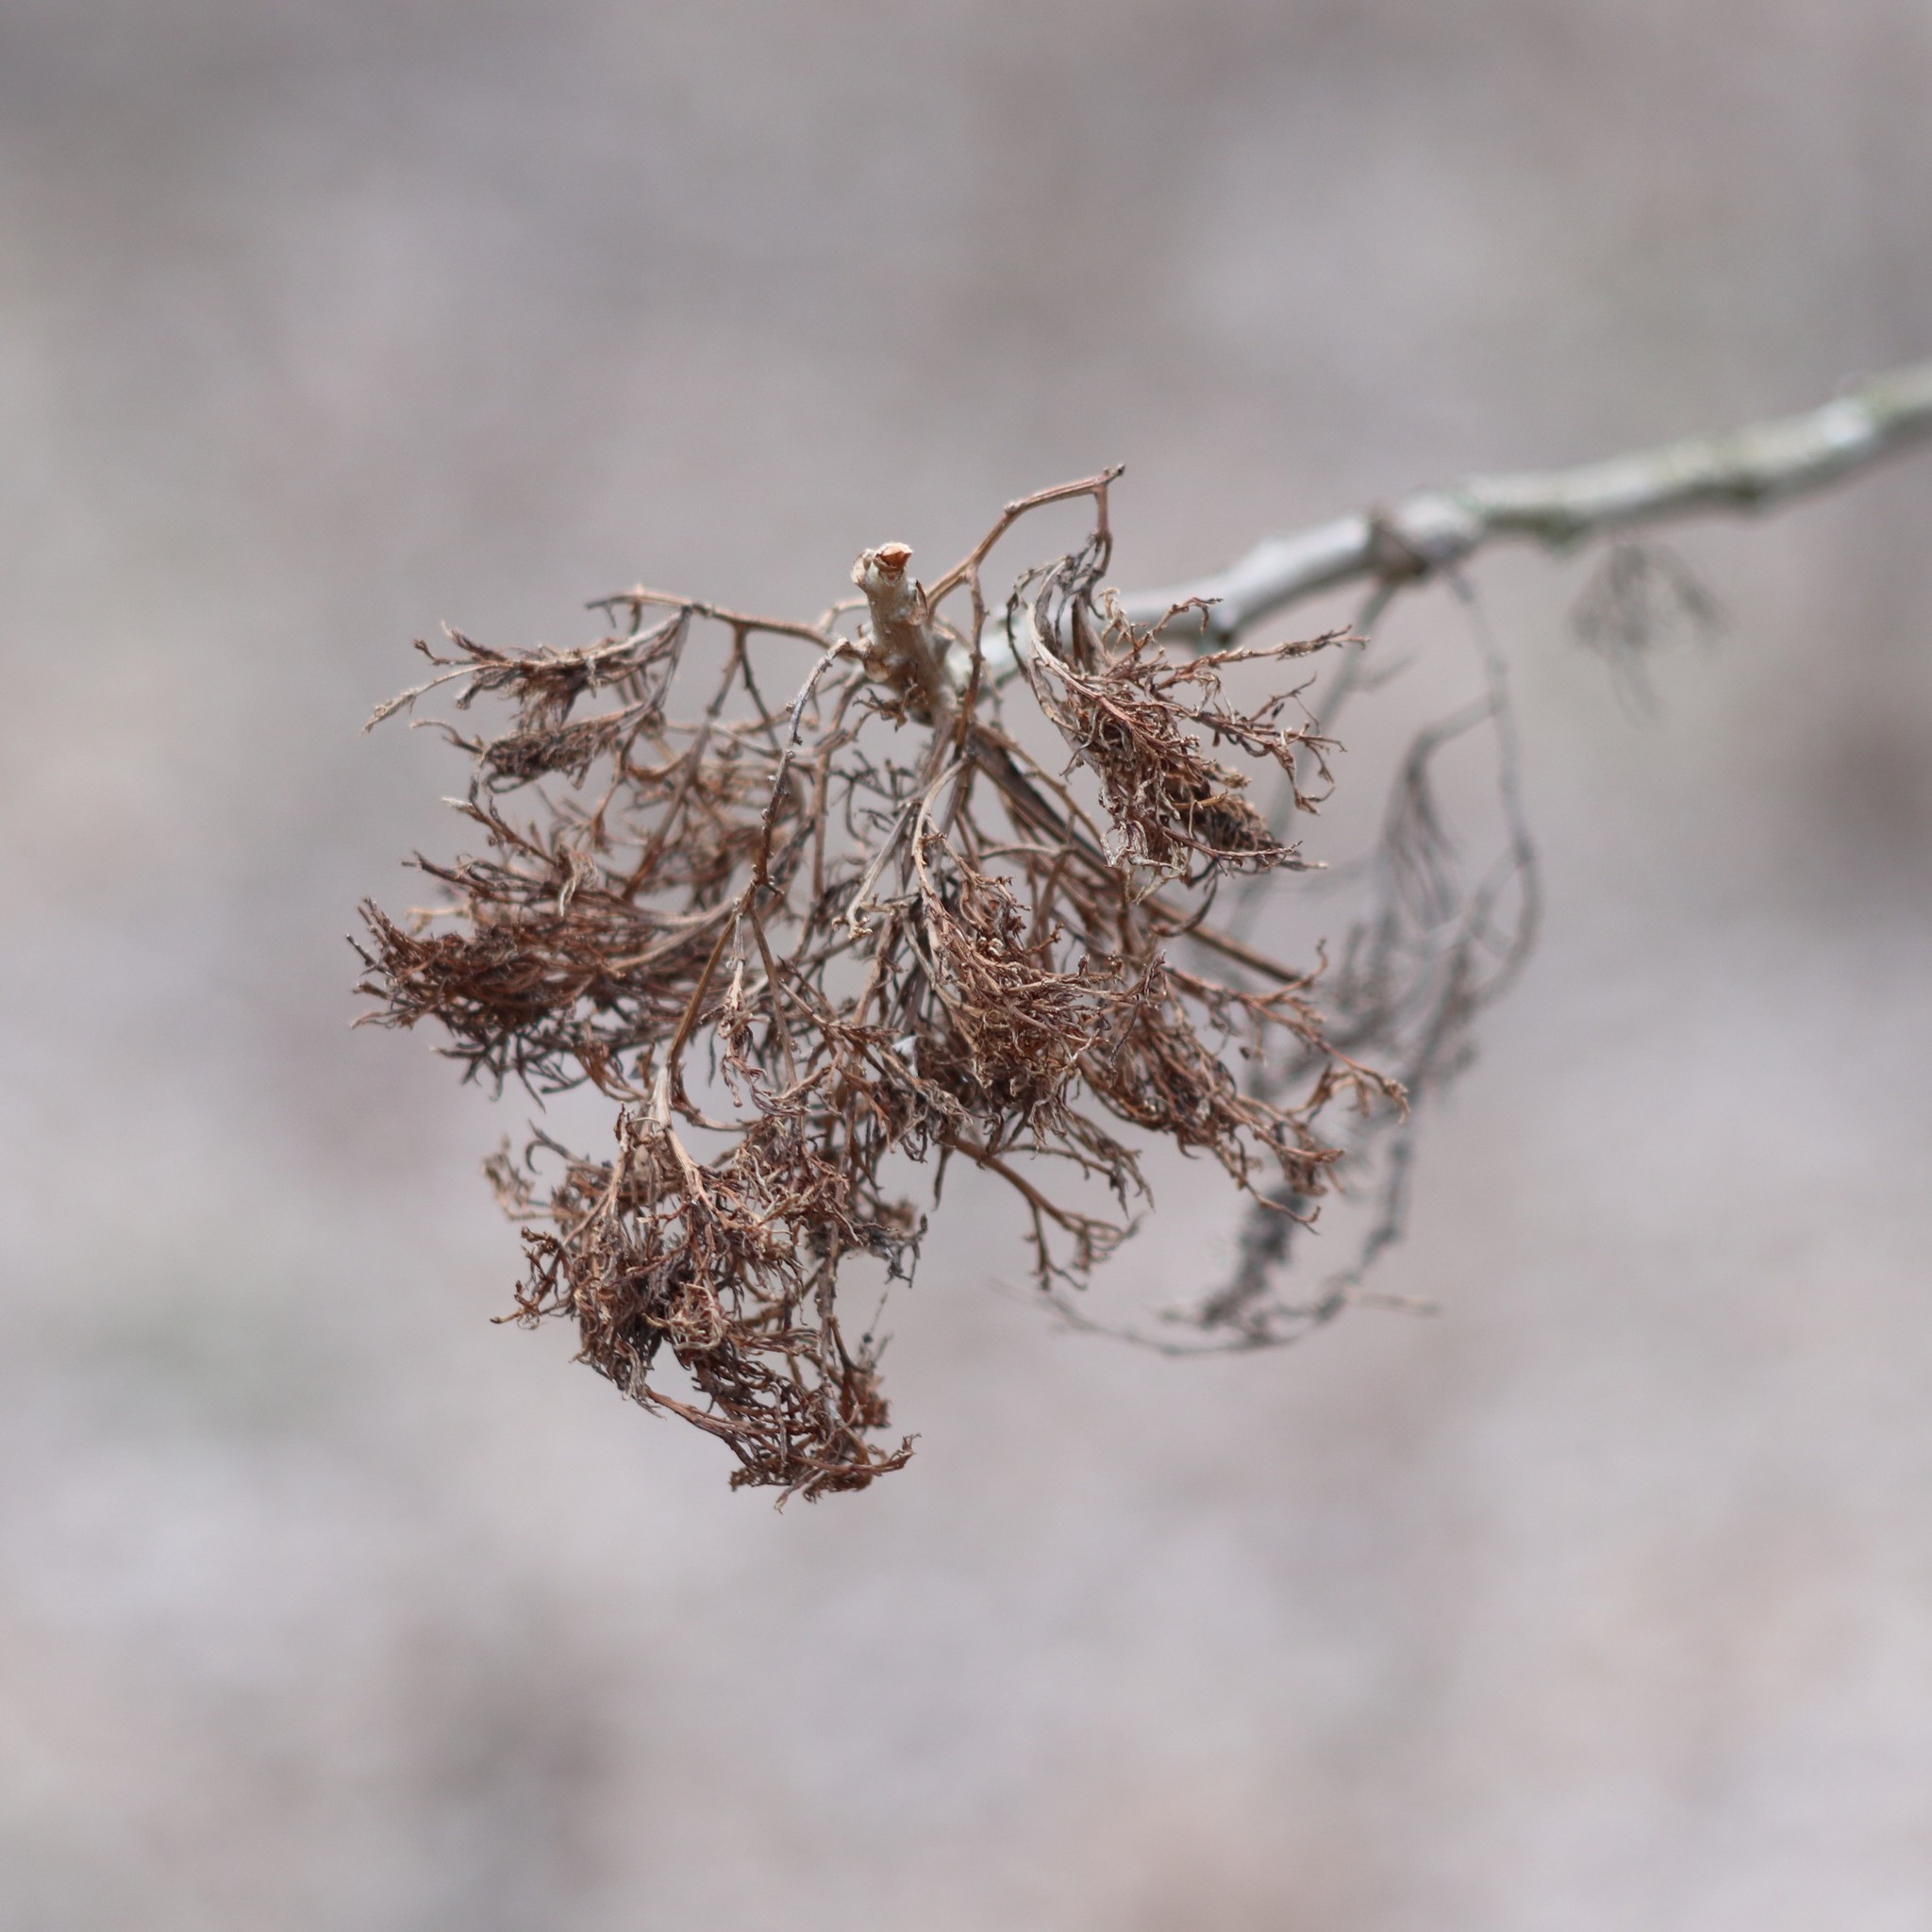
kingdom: Plantae
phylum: Tracheophyta
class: Magnoliopsida
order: Sapindales
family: Anacardiaceae
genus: Toxicodendron
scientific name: Toxicodendron radicans
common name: Poison ivy
